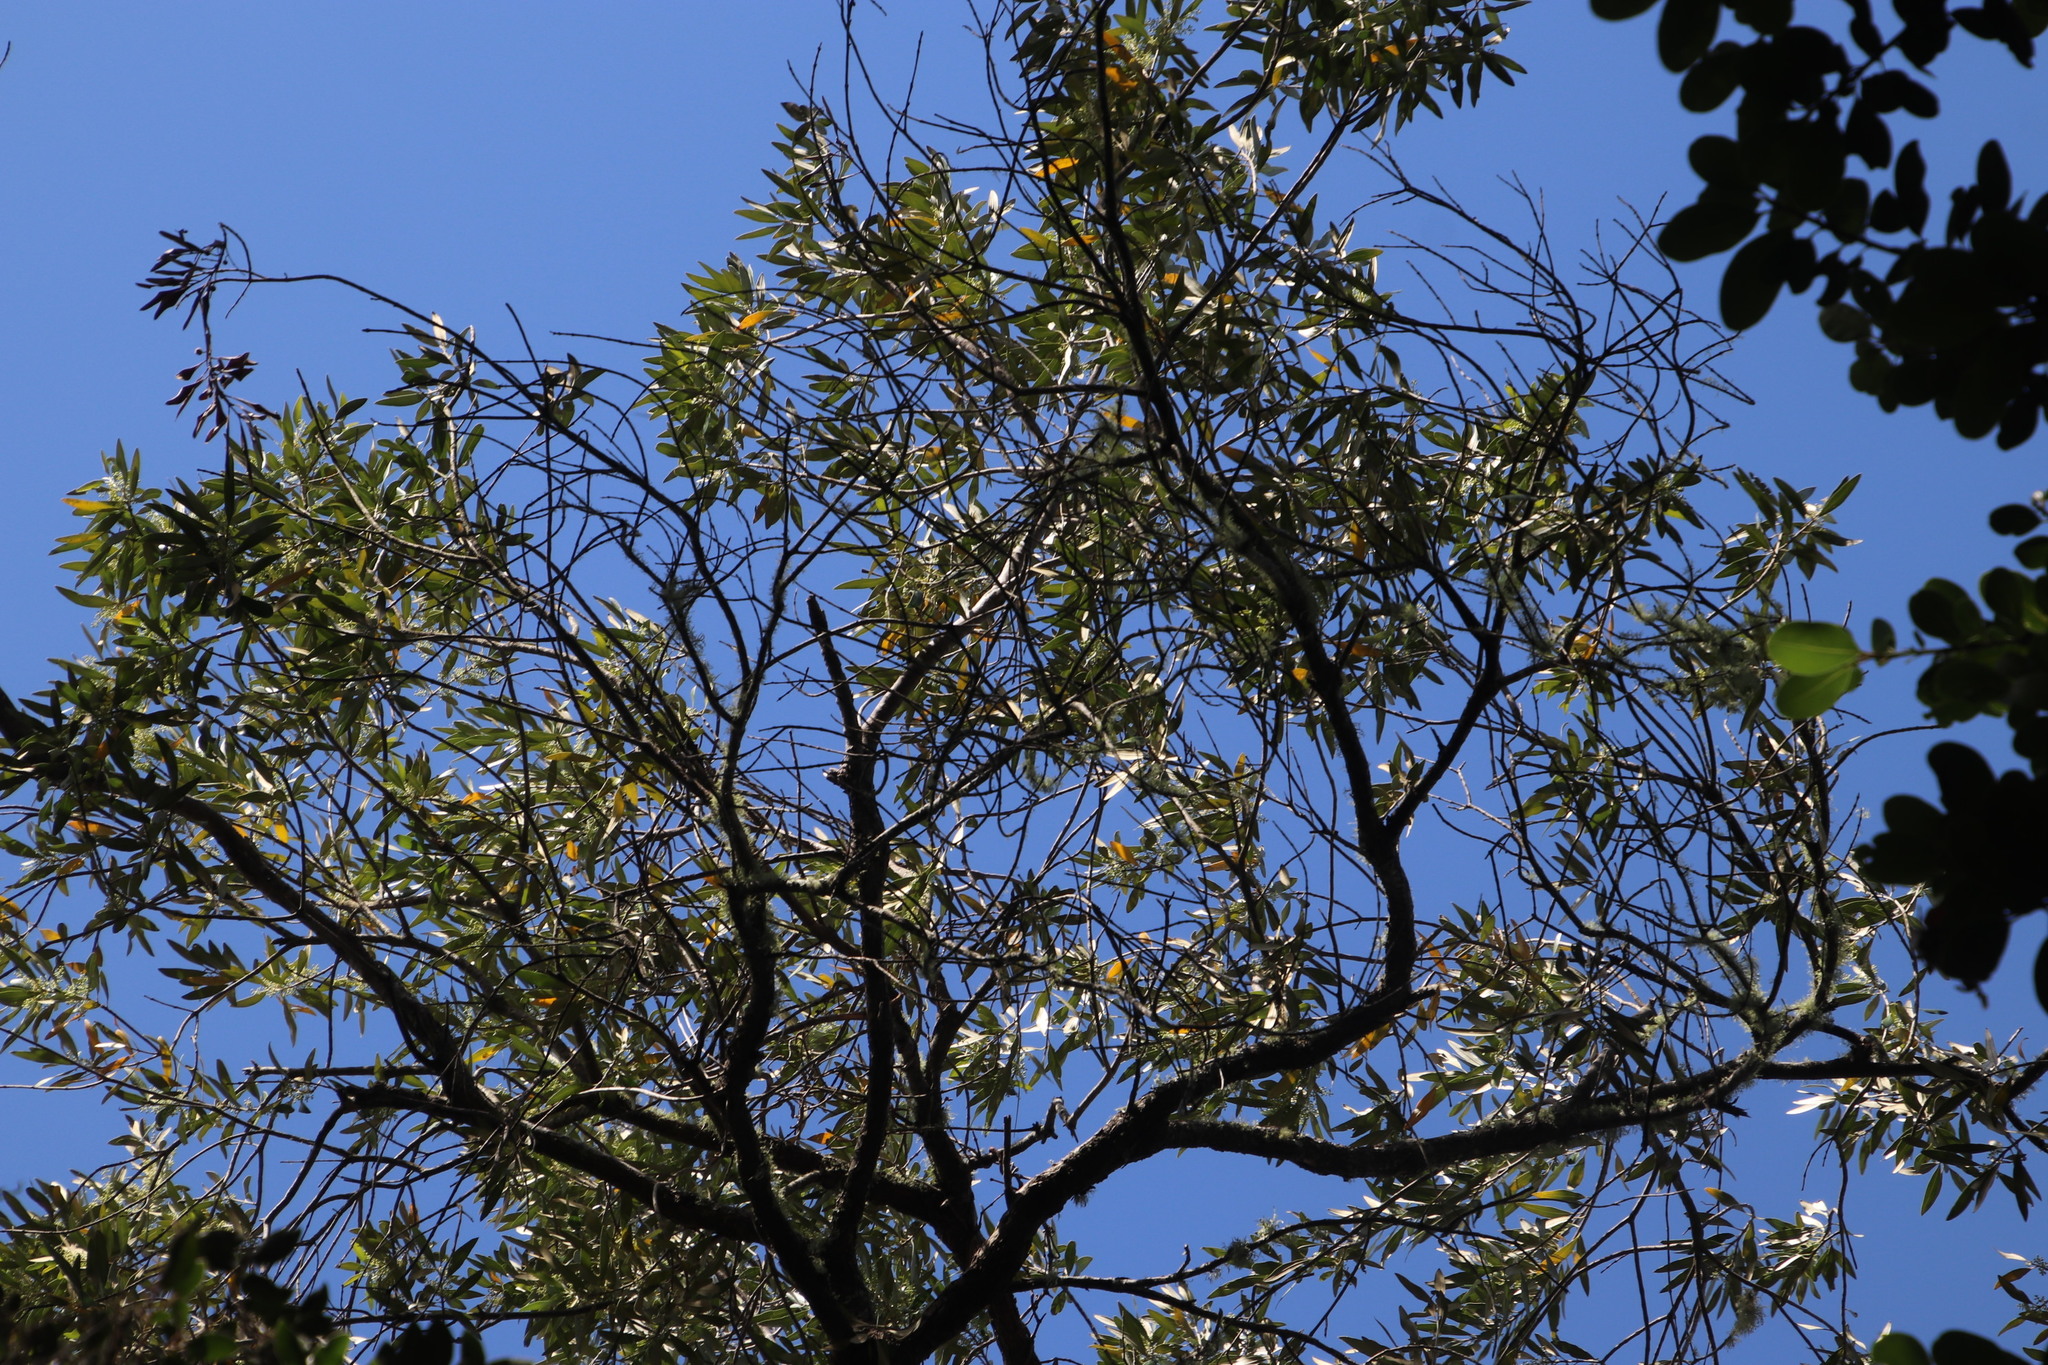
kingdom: Plantae
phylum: Tracheophyta
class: Magnoliopsida
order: Lamiales
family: Oleaceae
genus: Olea
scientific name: Olea europaea
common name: Olive
